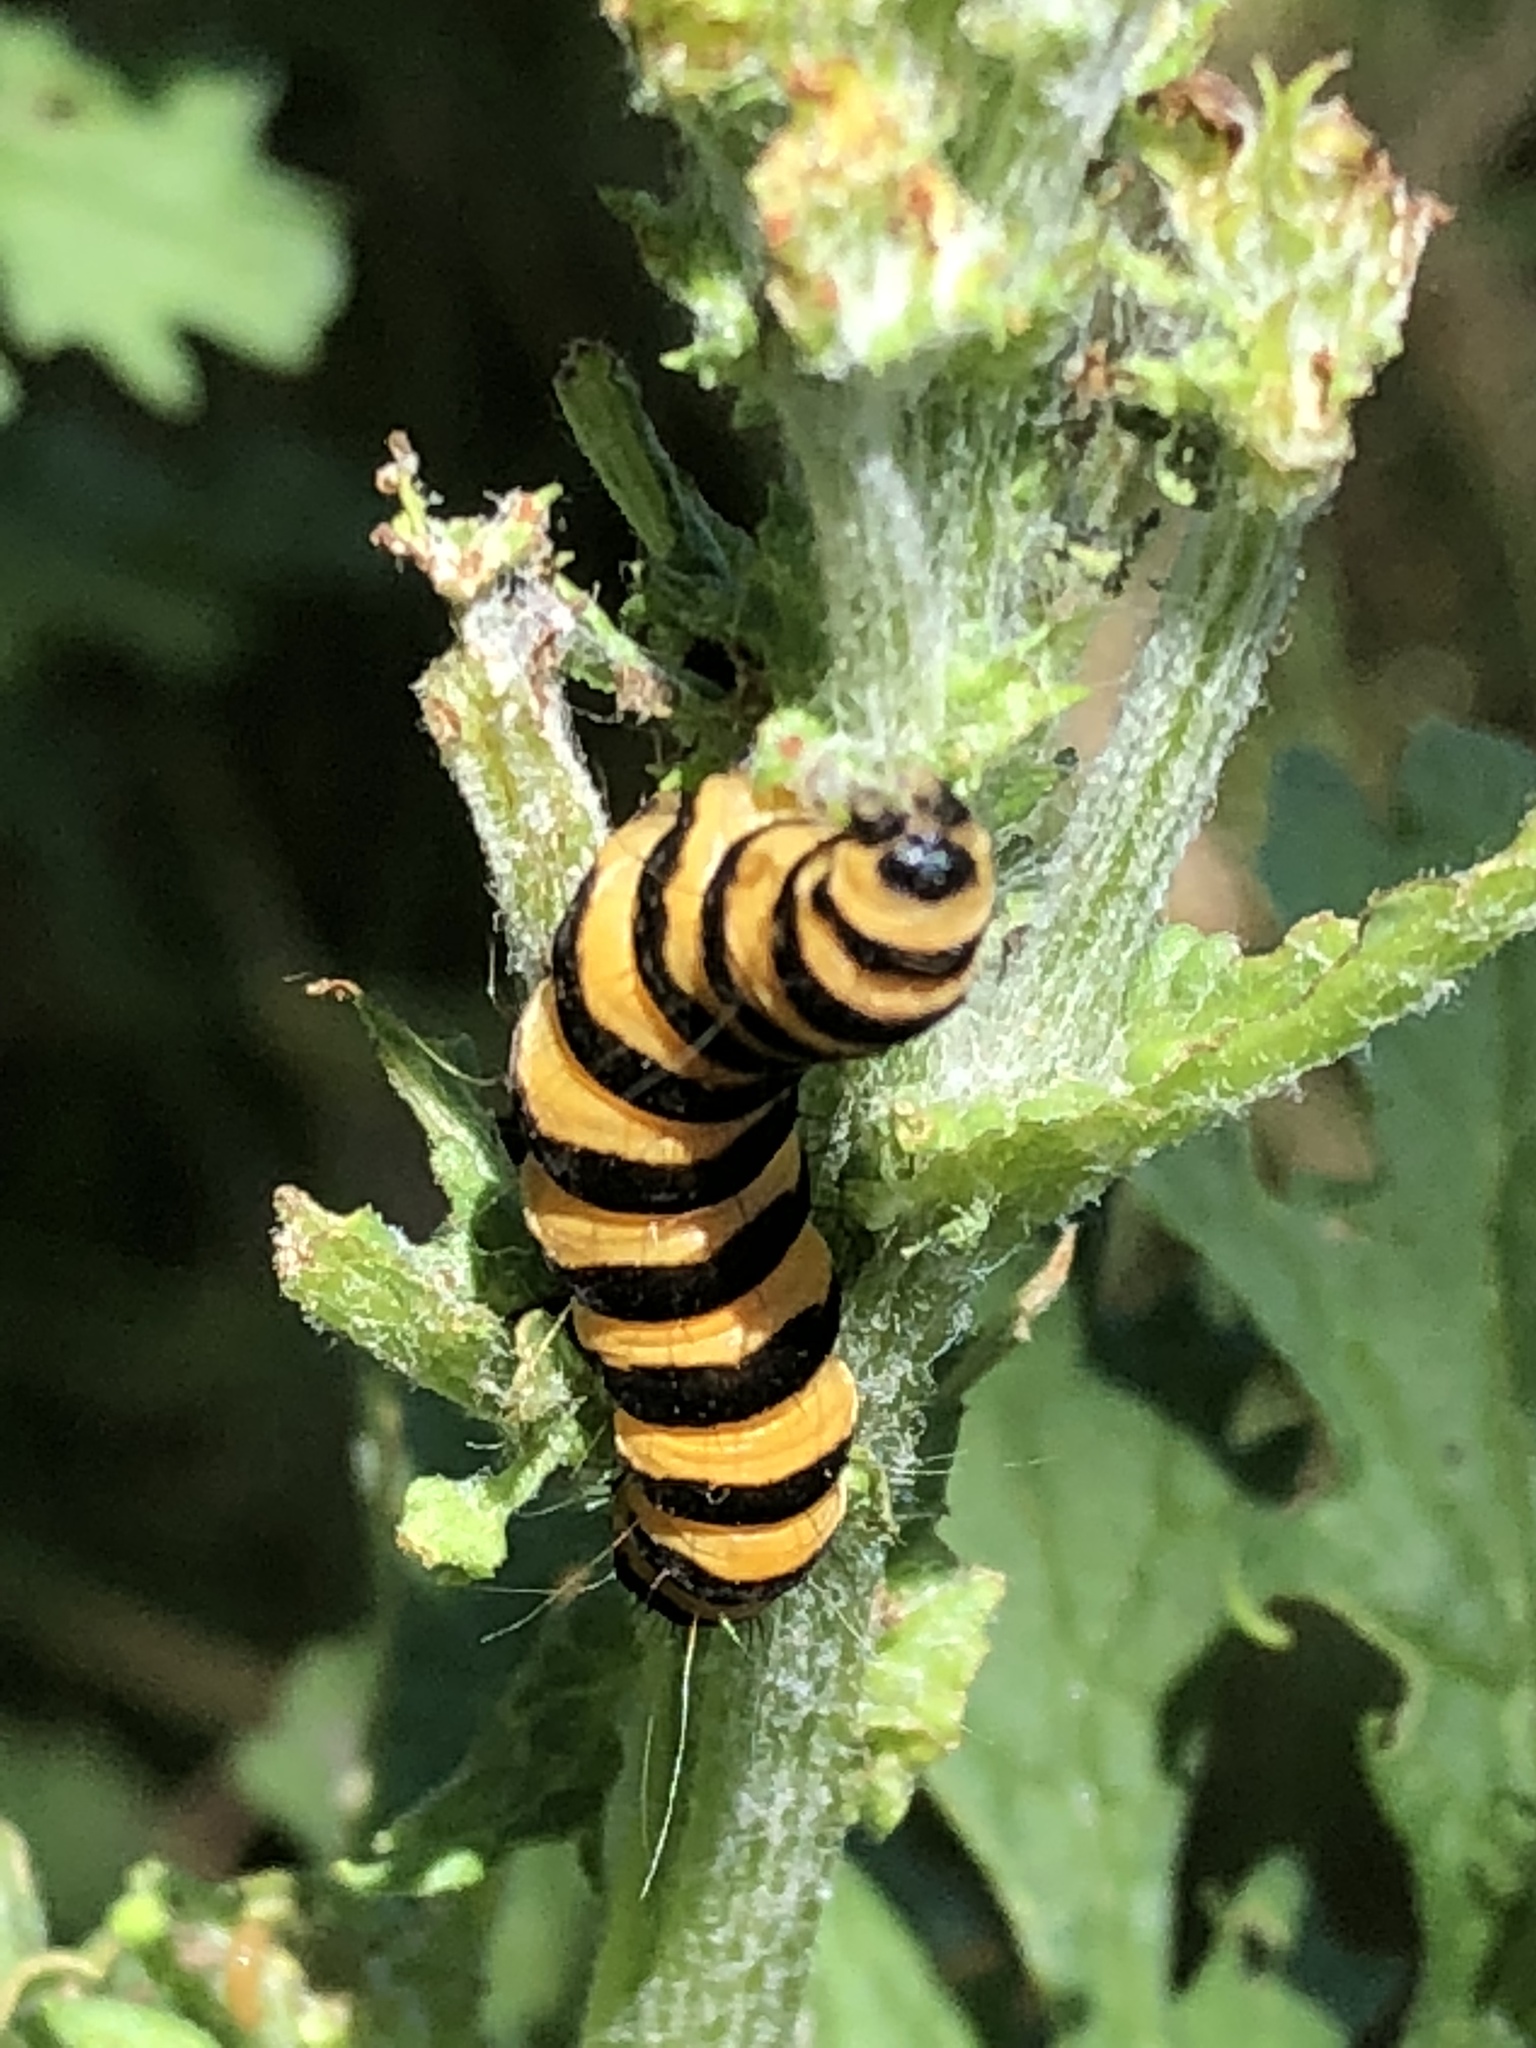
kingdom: Animalia
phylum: Arthropoda
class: Insecta
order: Lepidoptera
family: Erebidae
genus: Tyria
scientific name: Tyria jacobaeae
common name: Cinnabar
